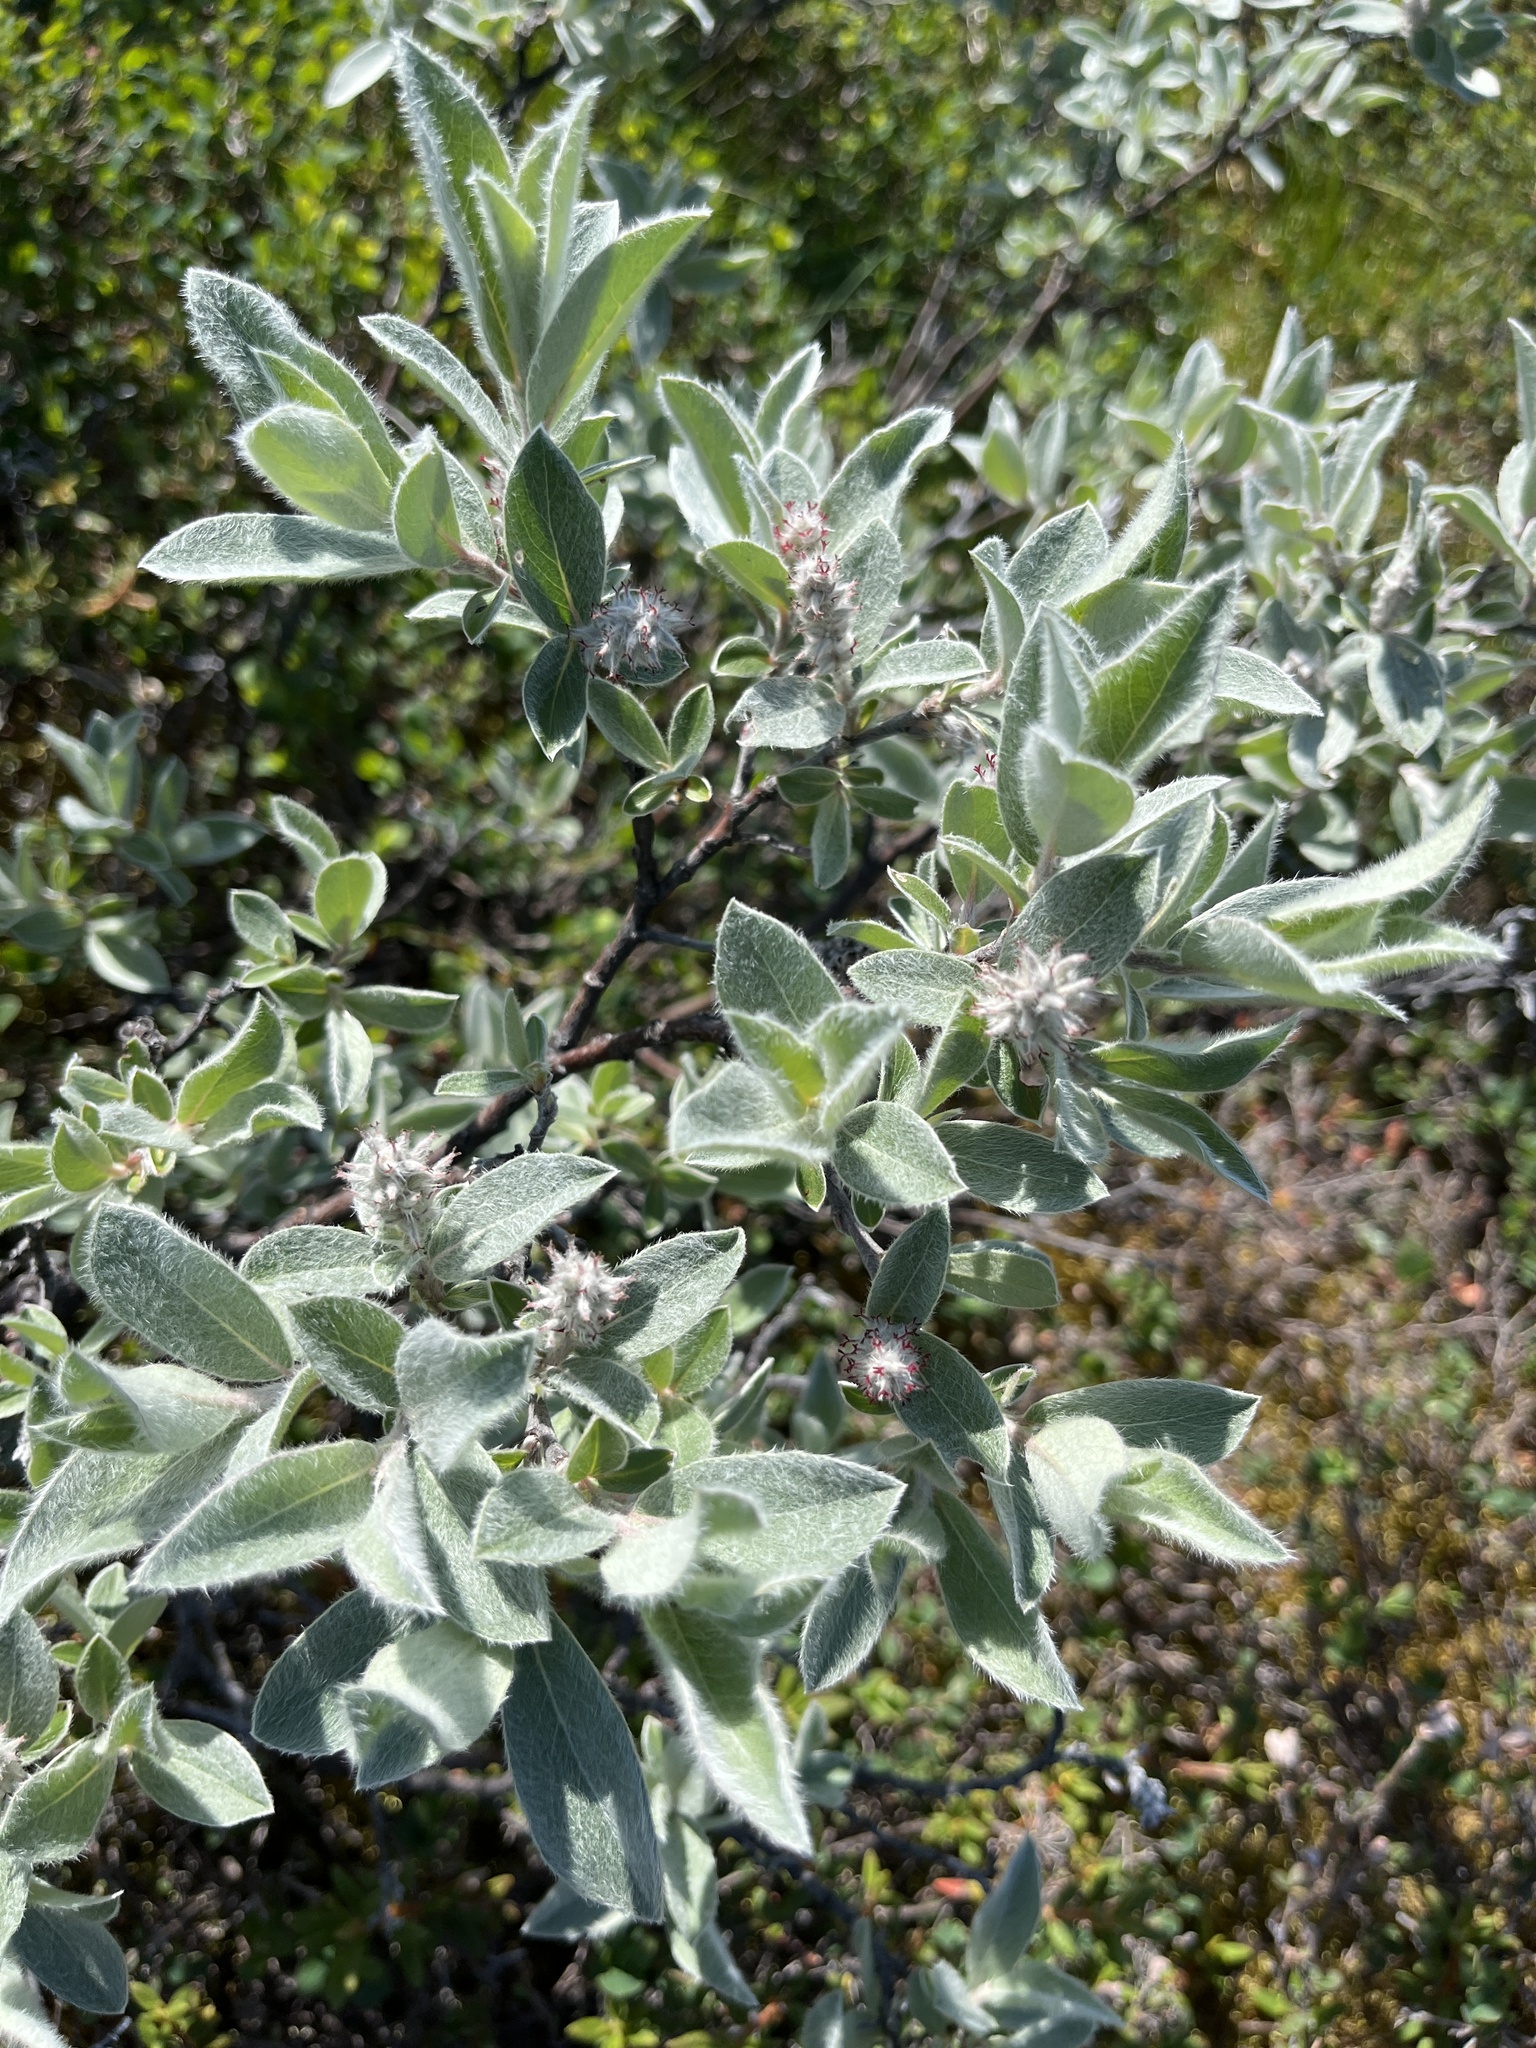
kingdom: Plantae
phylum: Tracheophyta
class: Magnoliopsida
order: Malpighiales
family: Salicaceae
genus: Salix
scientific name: Salix glauca
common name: Glaucous willow
